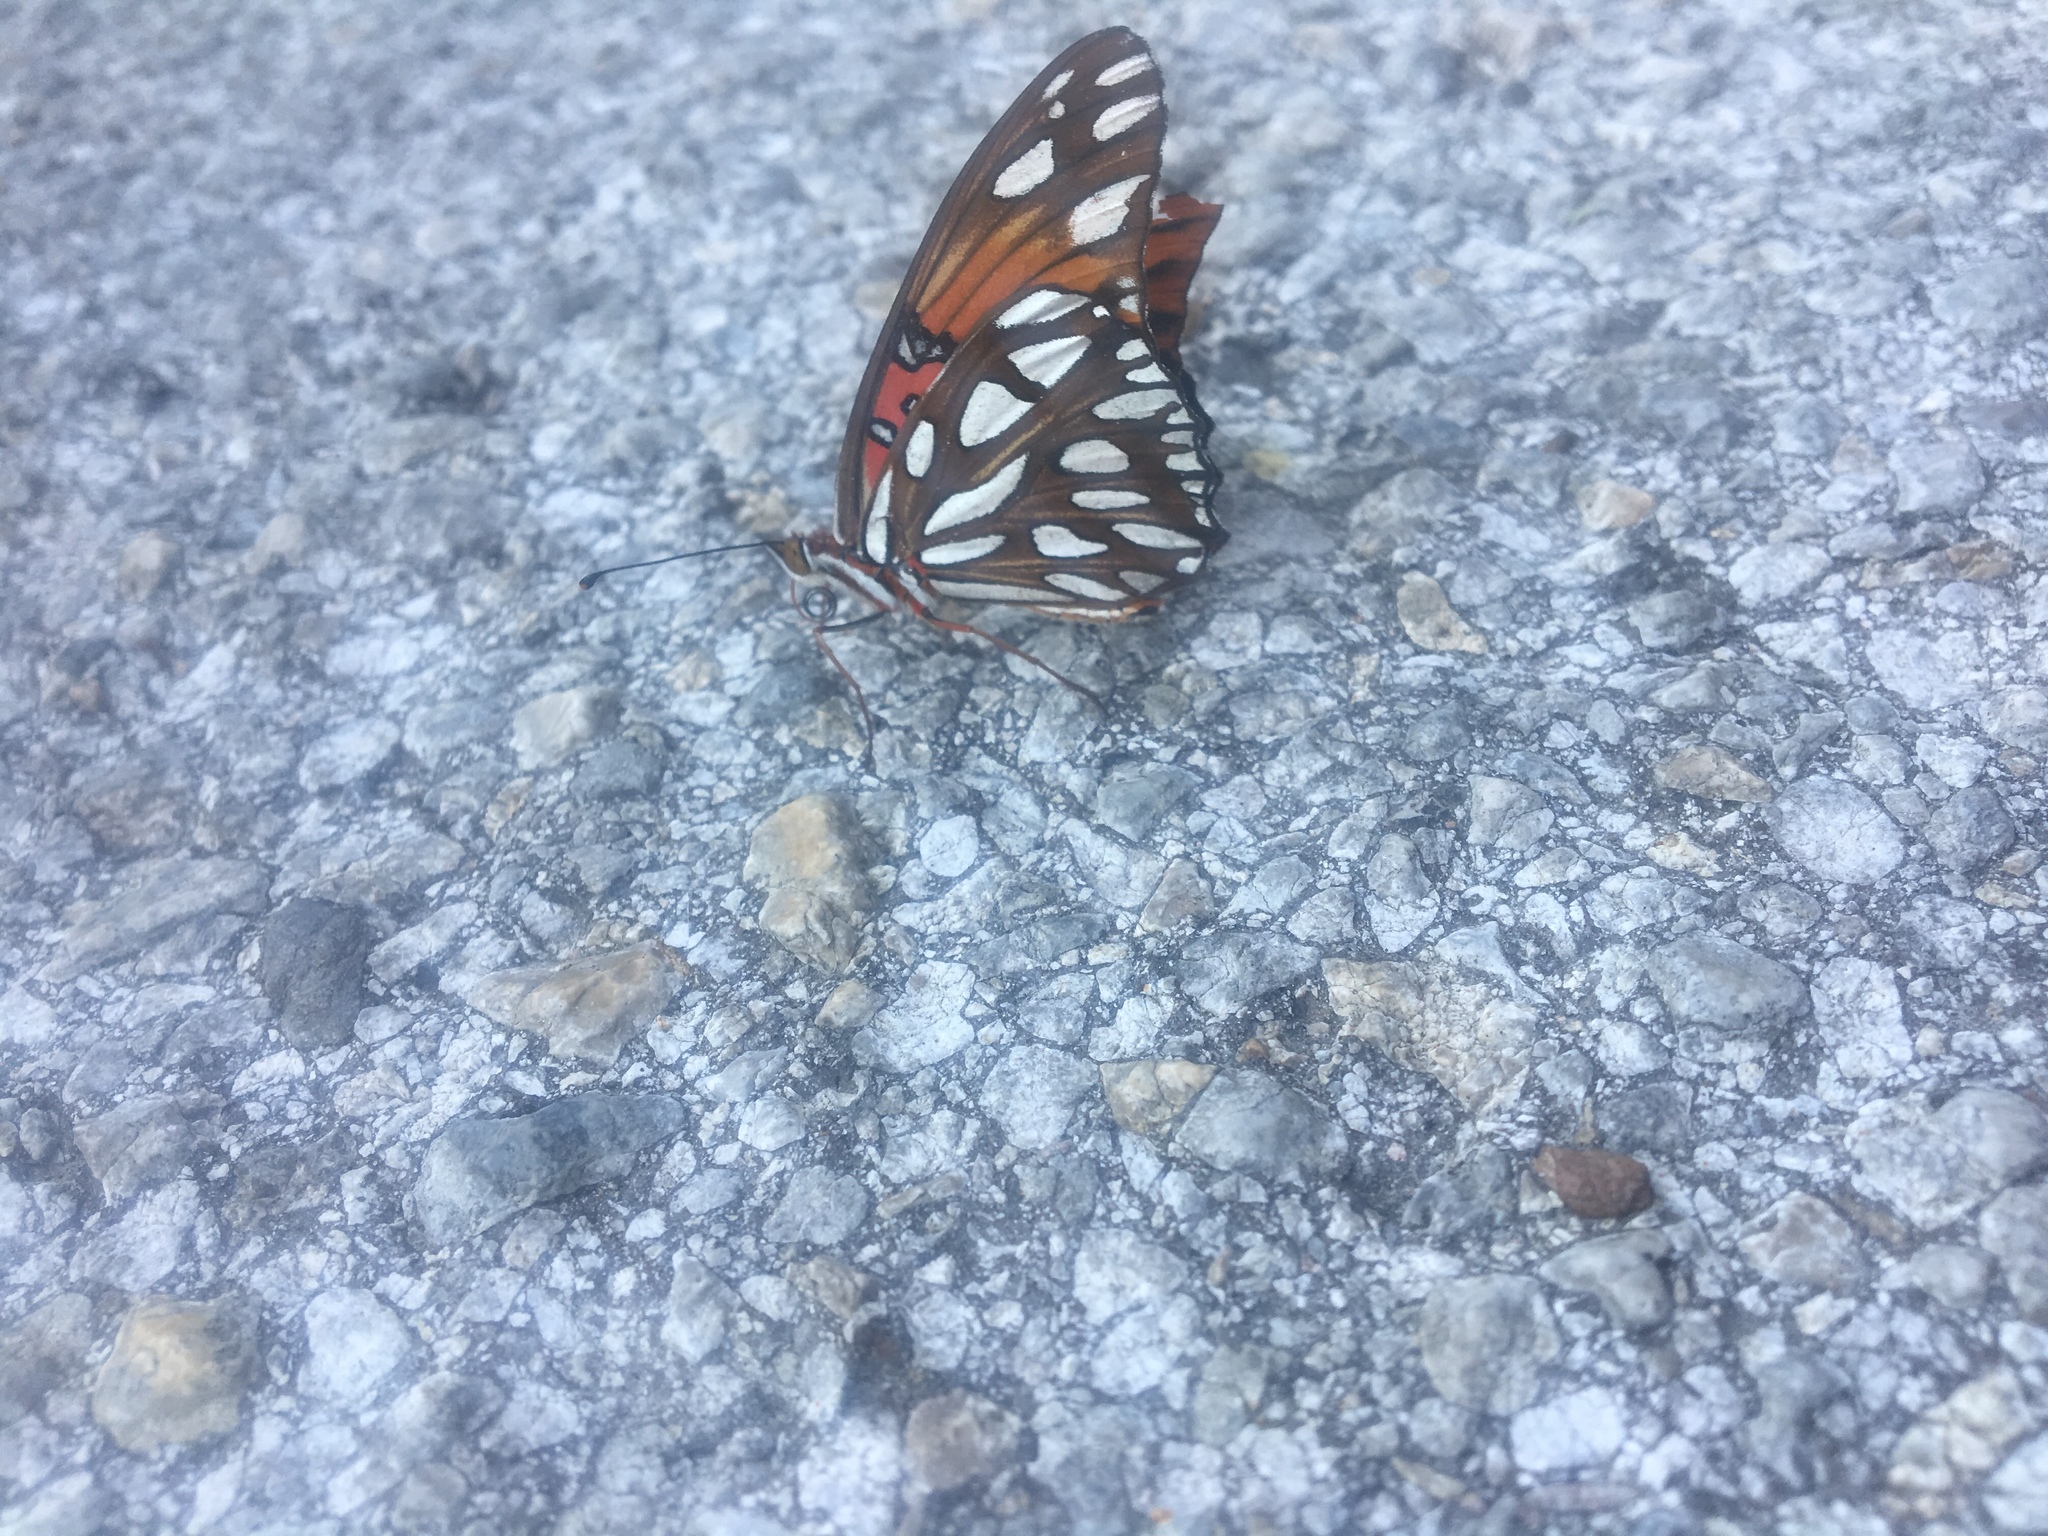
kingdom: Animalia
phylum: Arthropoda
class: Insecta
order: Lepidoptera
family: Nymphalidae
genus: Dione
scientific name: Dione vanillae
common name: Gulf fritillary
